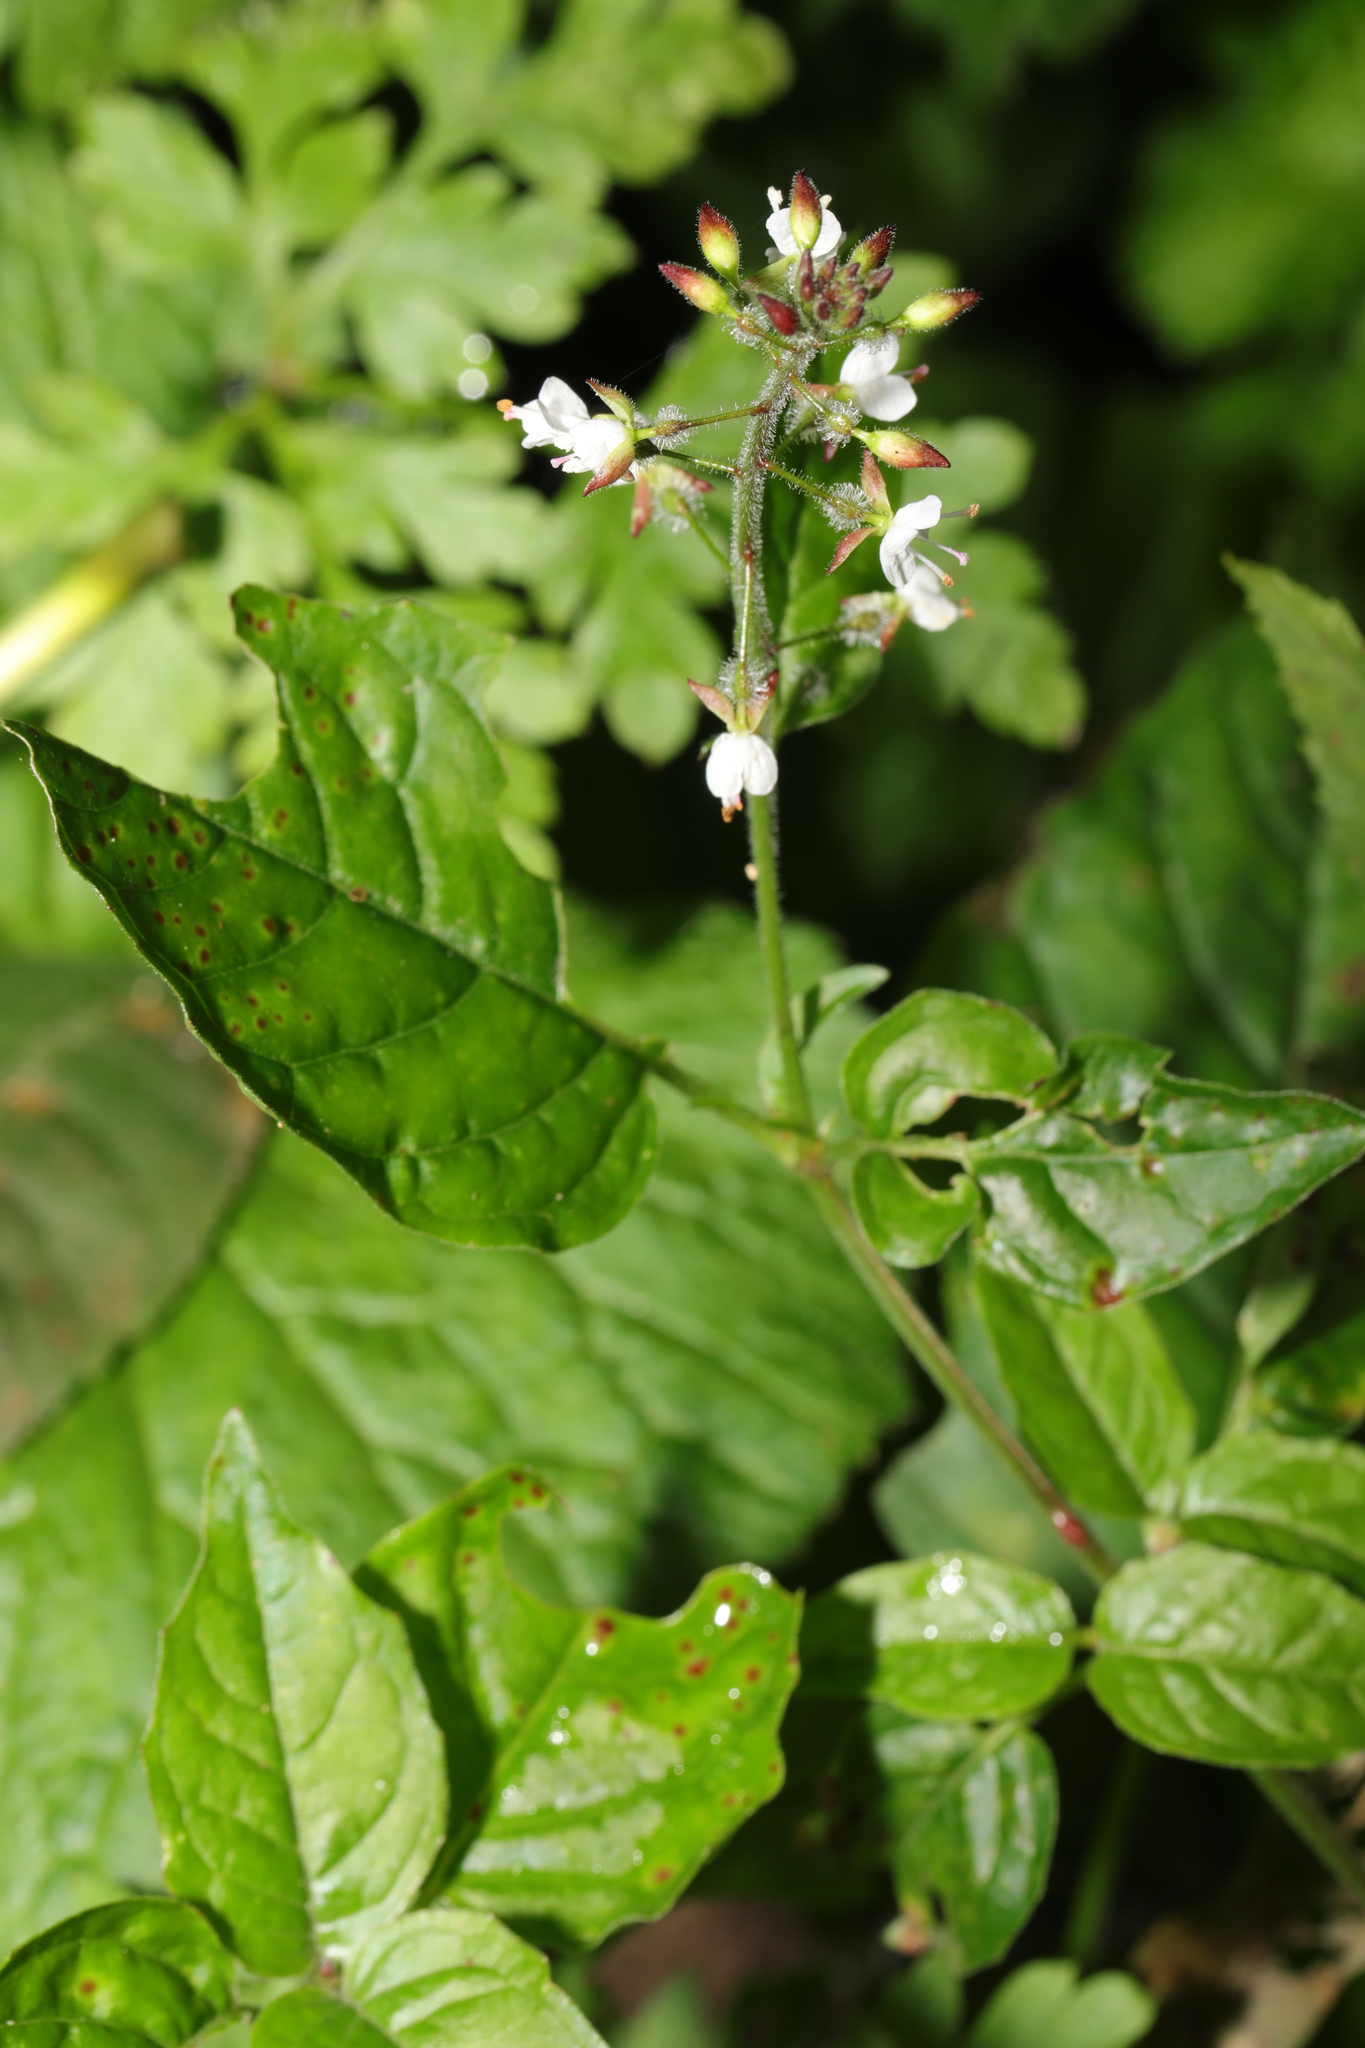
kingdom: Plantae
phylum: Tracheophyta
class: Magnoliopsida
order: Myrtales
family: Onagraceae
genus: Circaea
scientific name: Circaea lutetiana
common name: Enchanter's-nightshade
